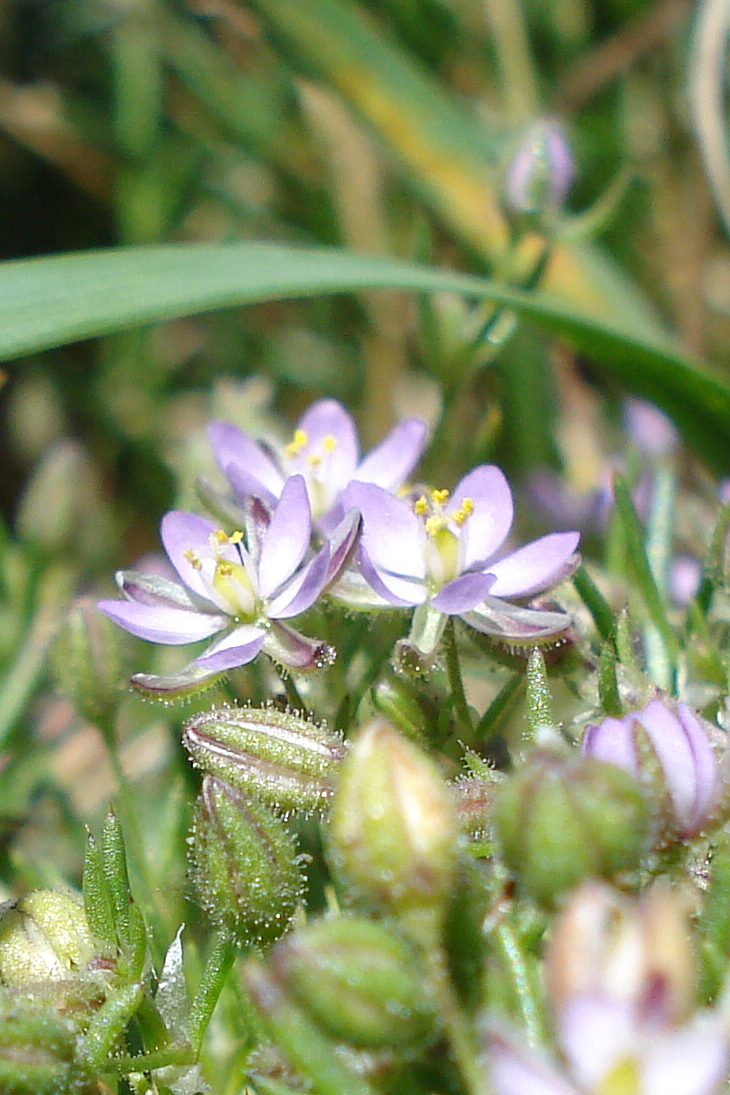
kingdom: Plantae
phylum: Tracheophyta
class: Magnoliopsida
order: Caryophyllales
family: Caryophyllaceae
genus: Spergularia
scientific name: Spergularia media
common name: Greater sea-spurrey
